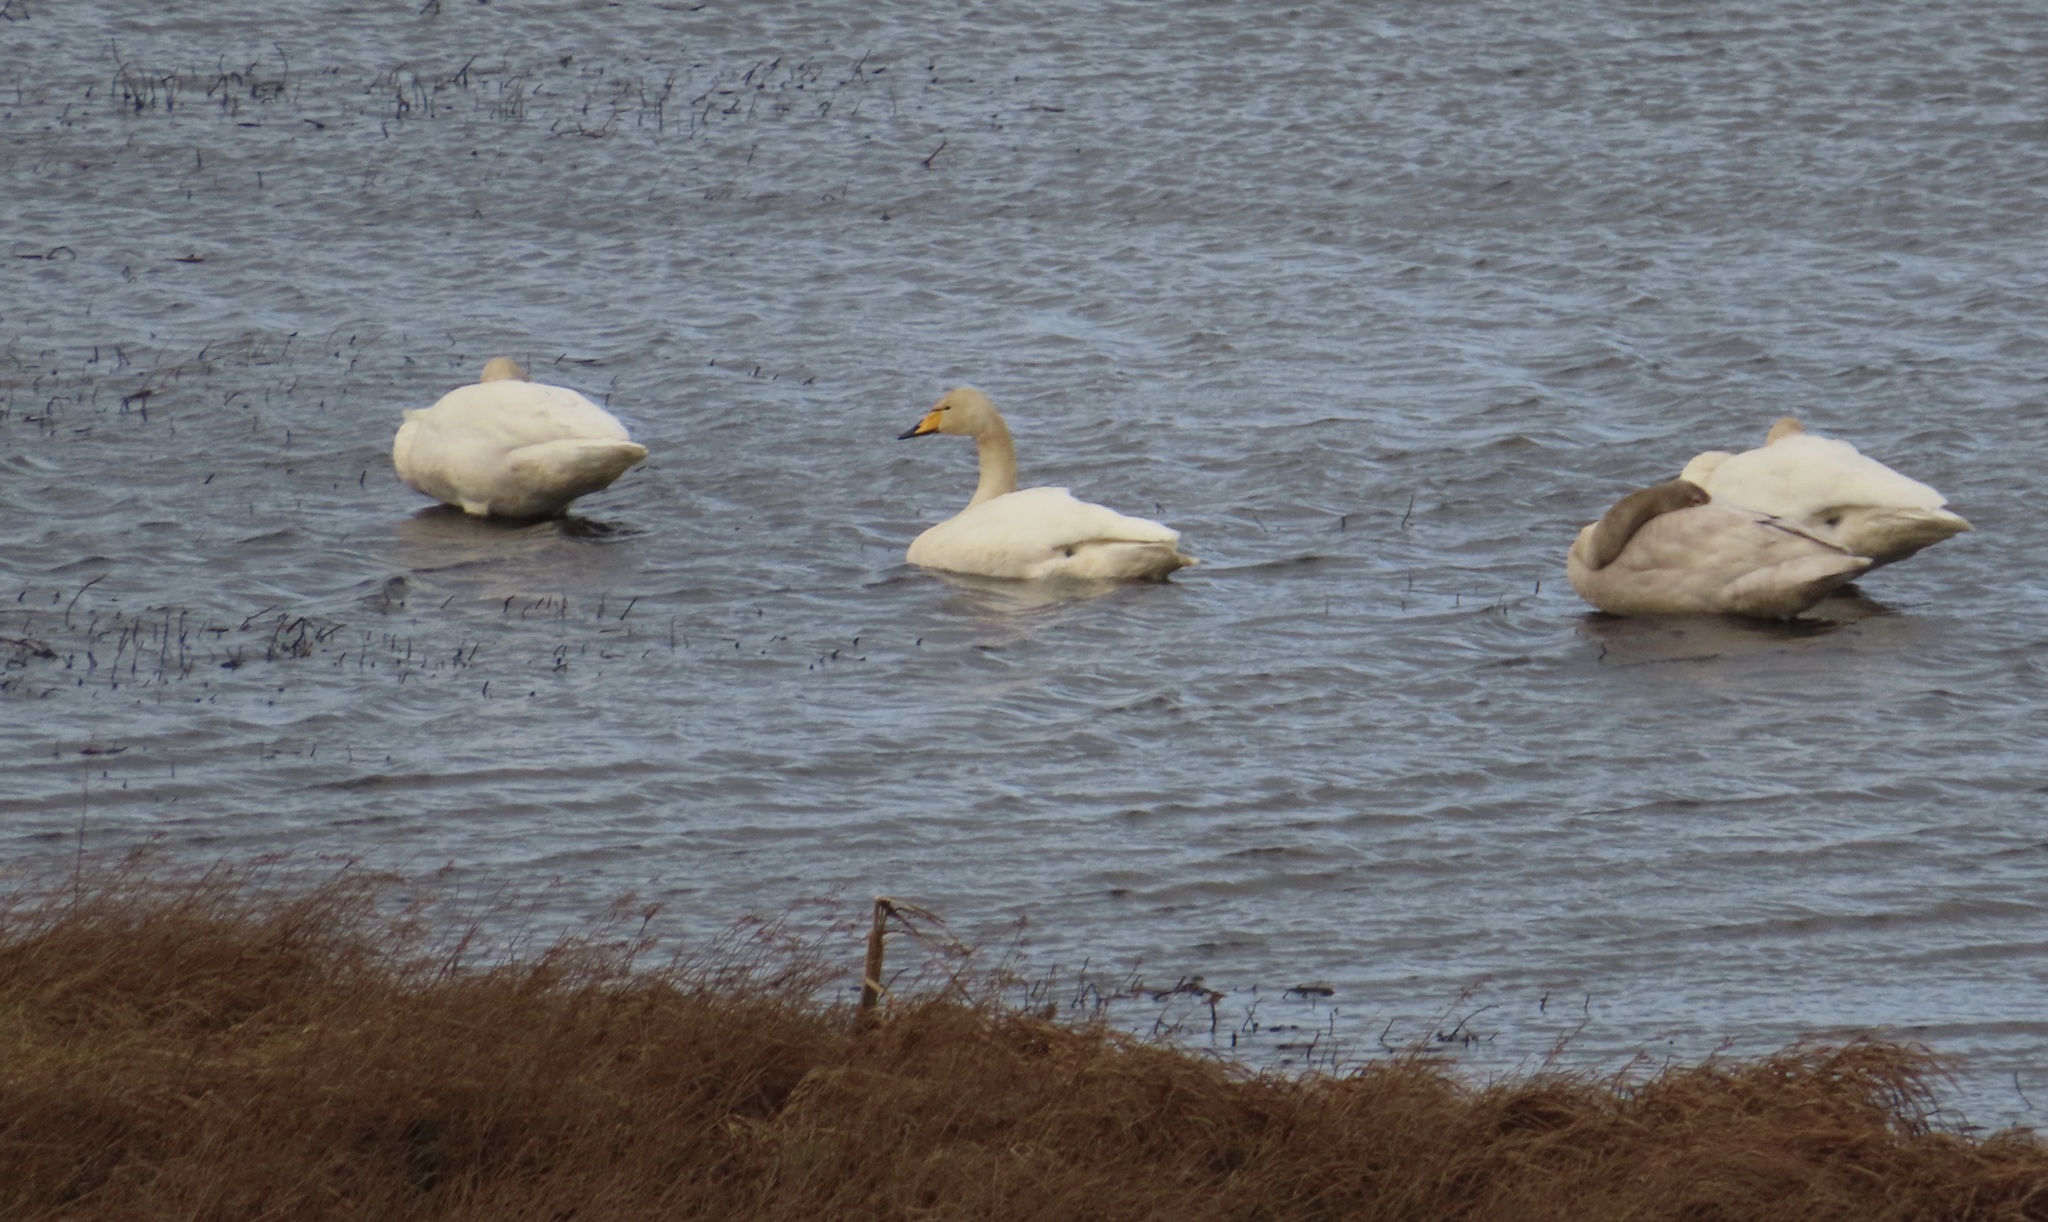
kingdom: Animalia
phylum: Chordata
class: Aves
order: Anseriformes
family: Anatidae
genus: Cygnus
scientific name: Cygnus cygnus
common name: Whooper swan
